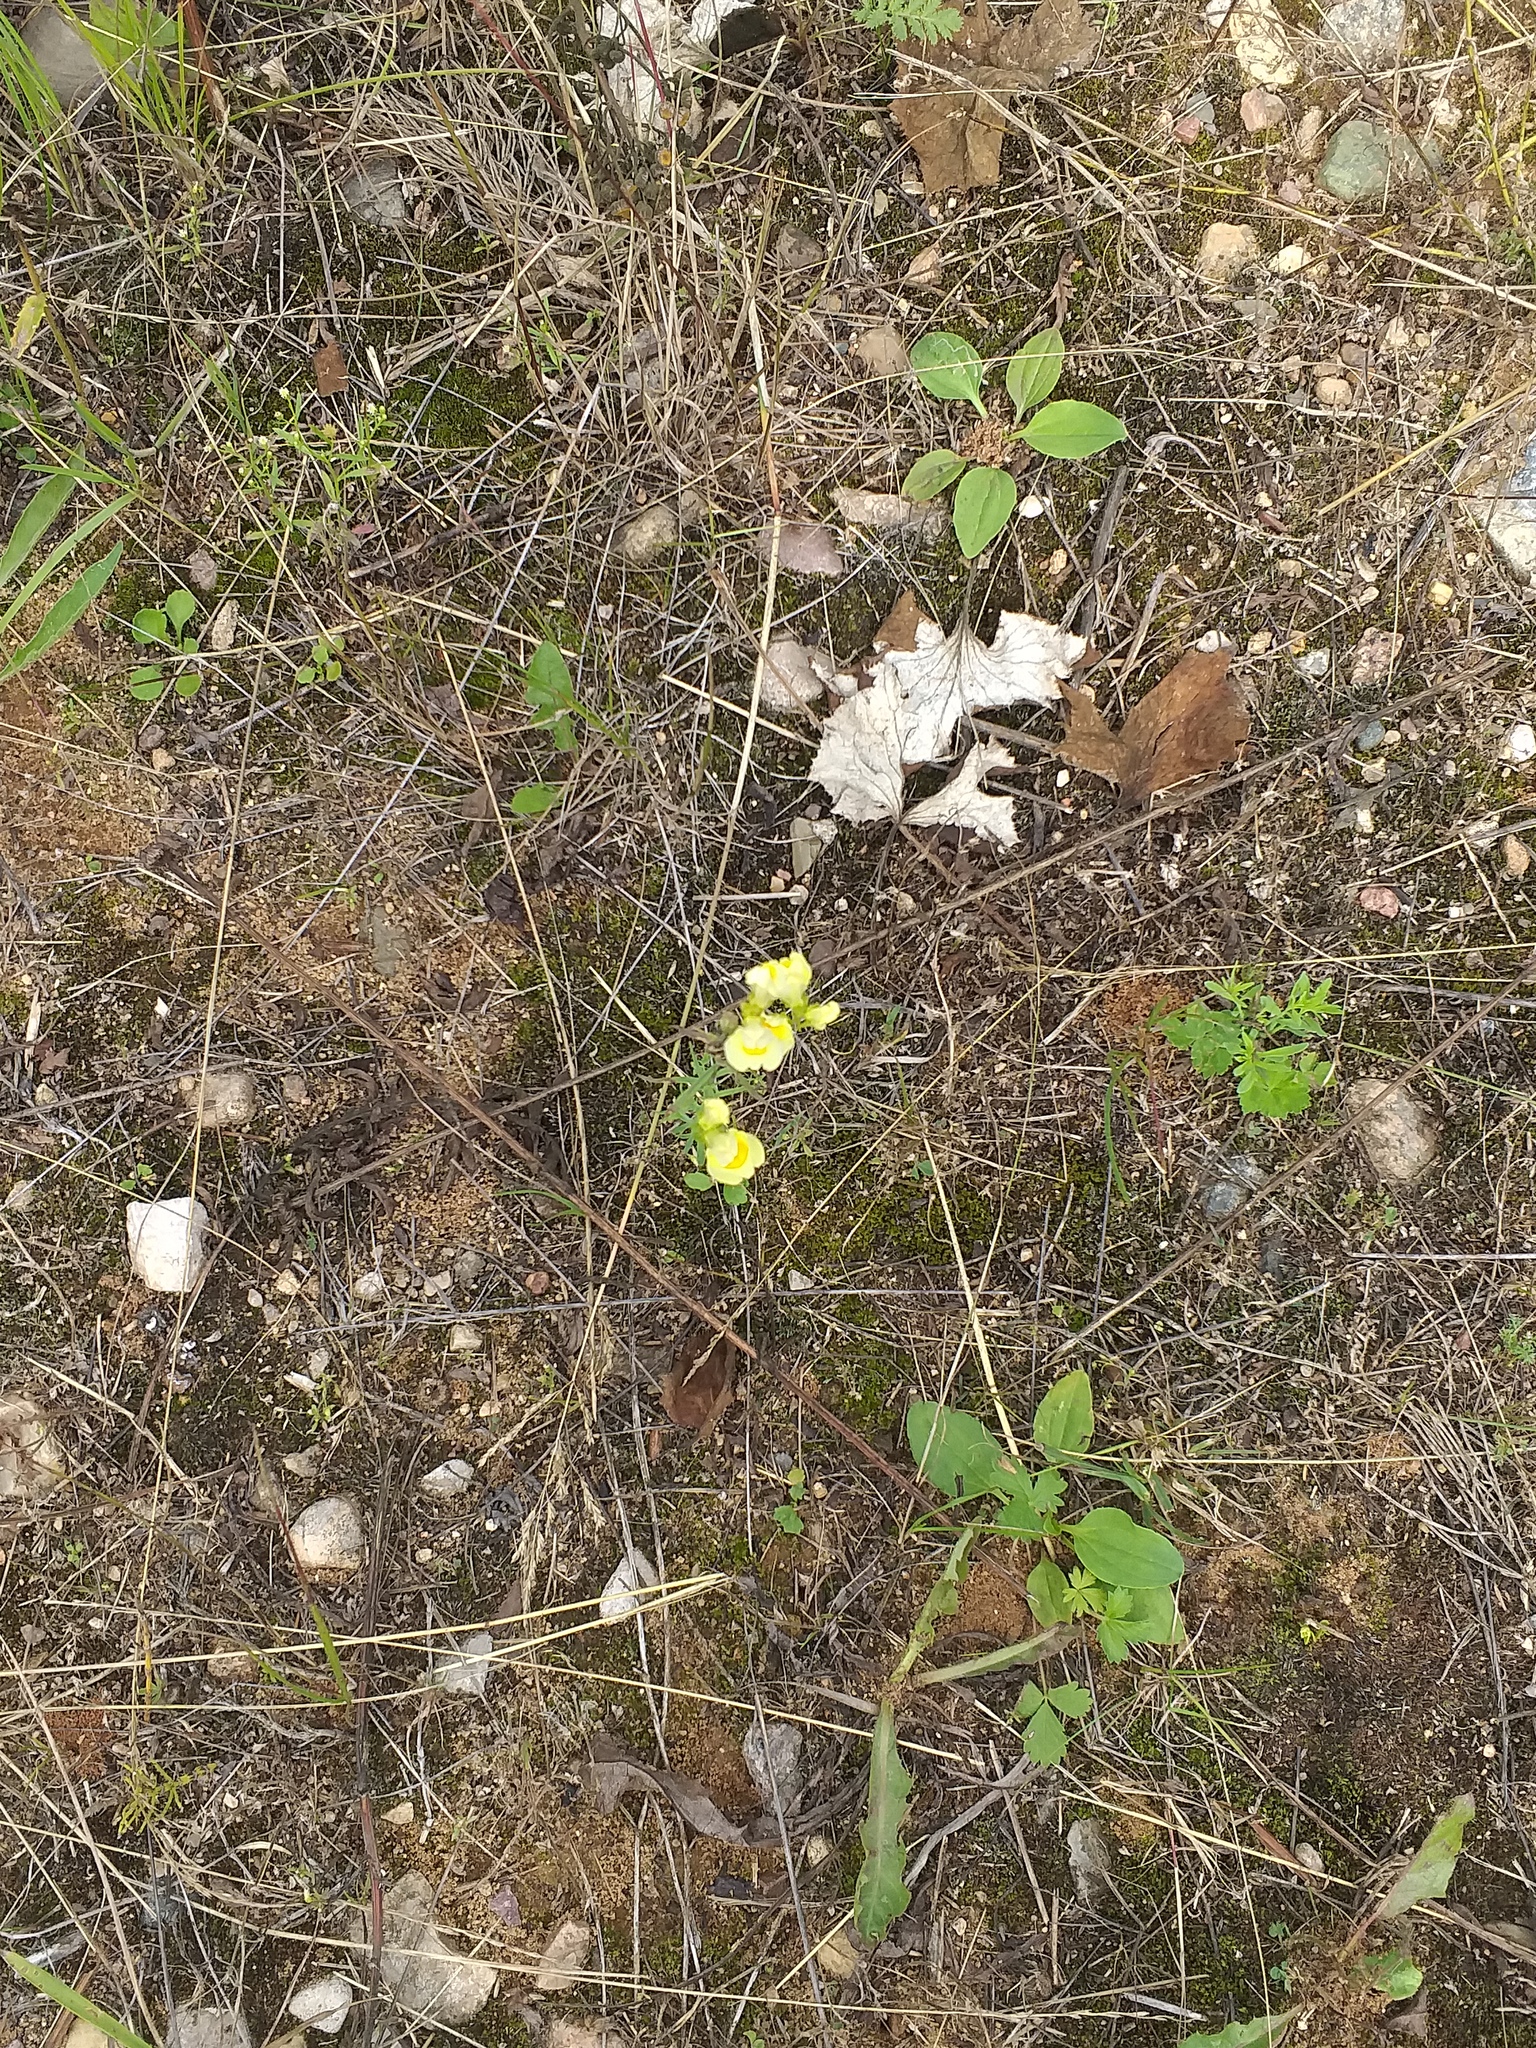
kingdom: Plantae
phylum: Tracheophyta
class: Magnoliopsida
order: Lamiales
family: Plantaginaceae
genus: Linaria
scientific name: Linaria vulgaris
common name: Butter and eggs
